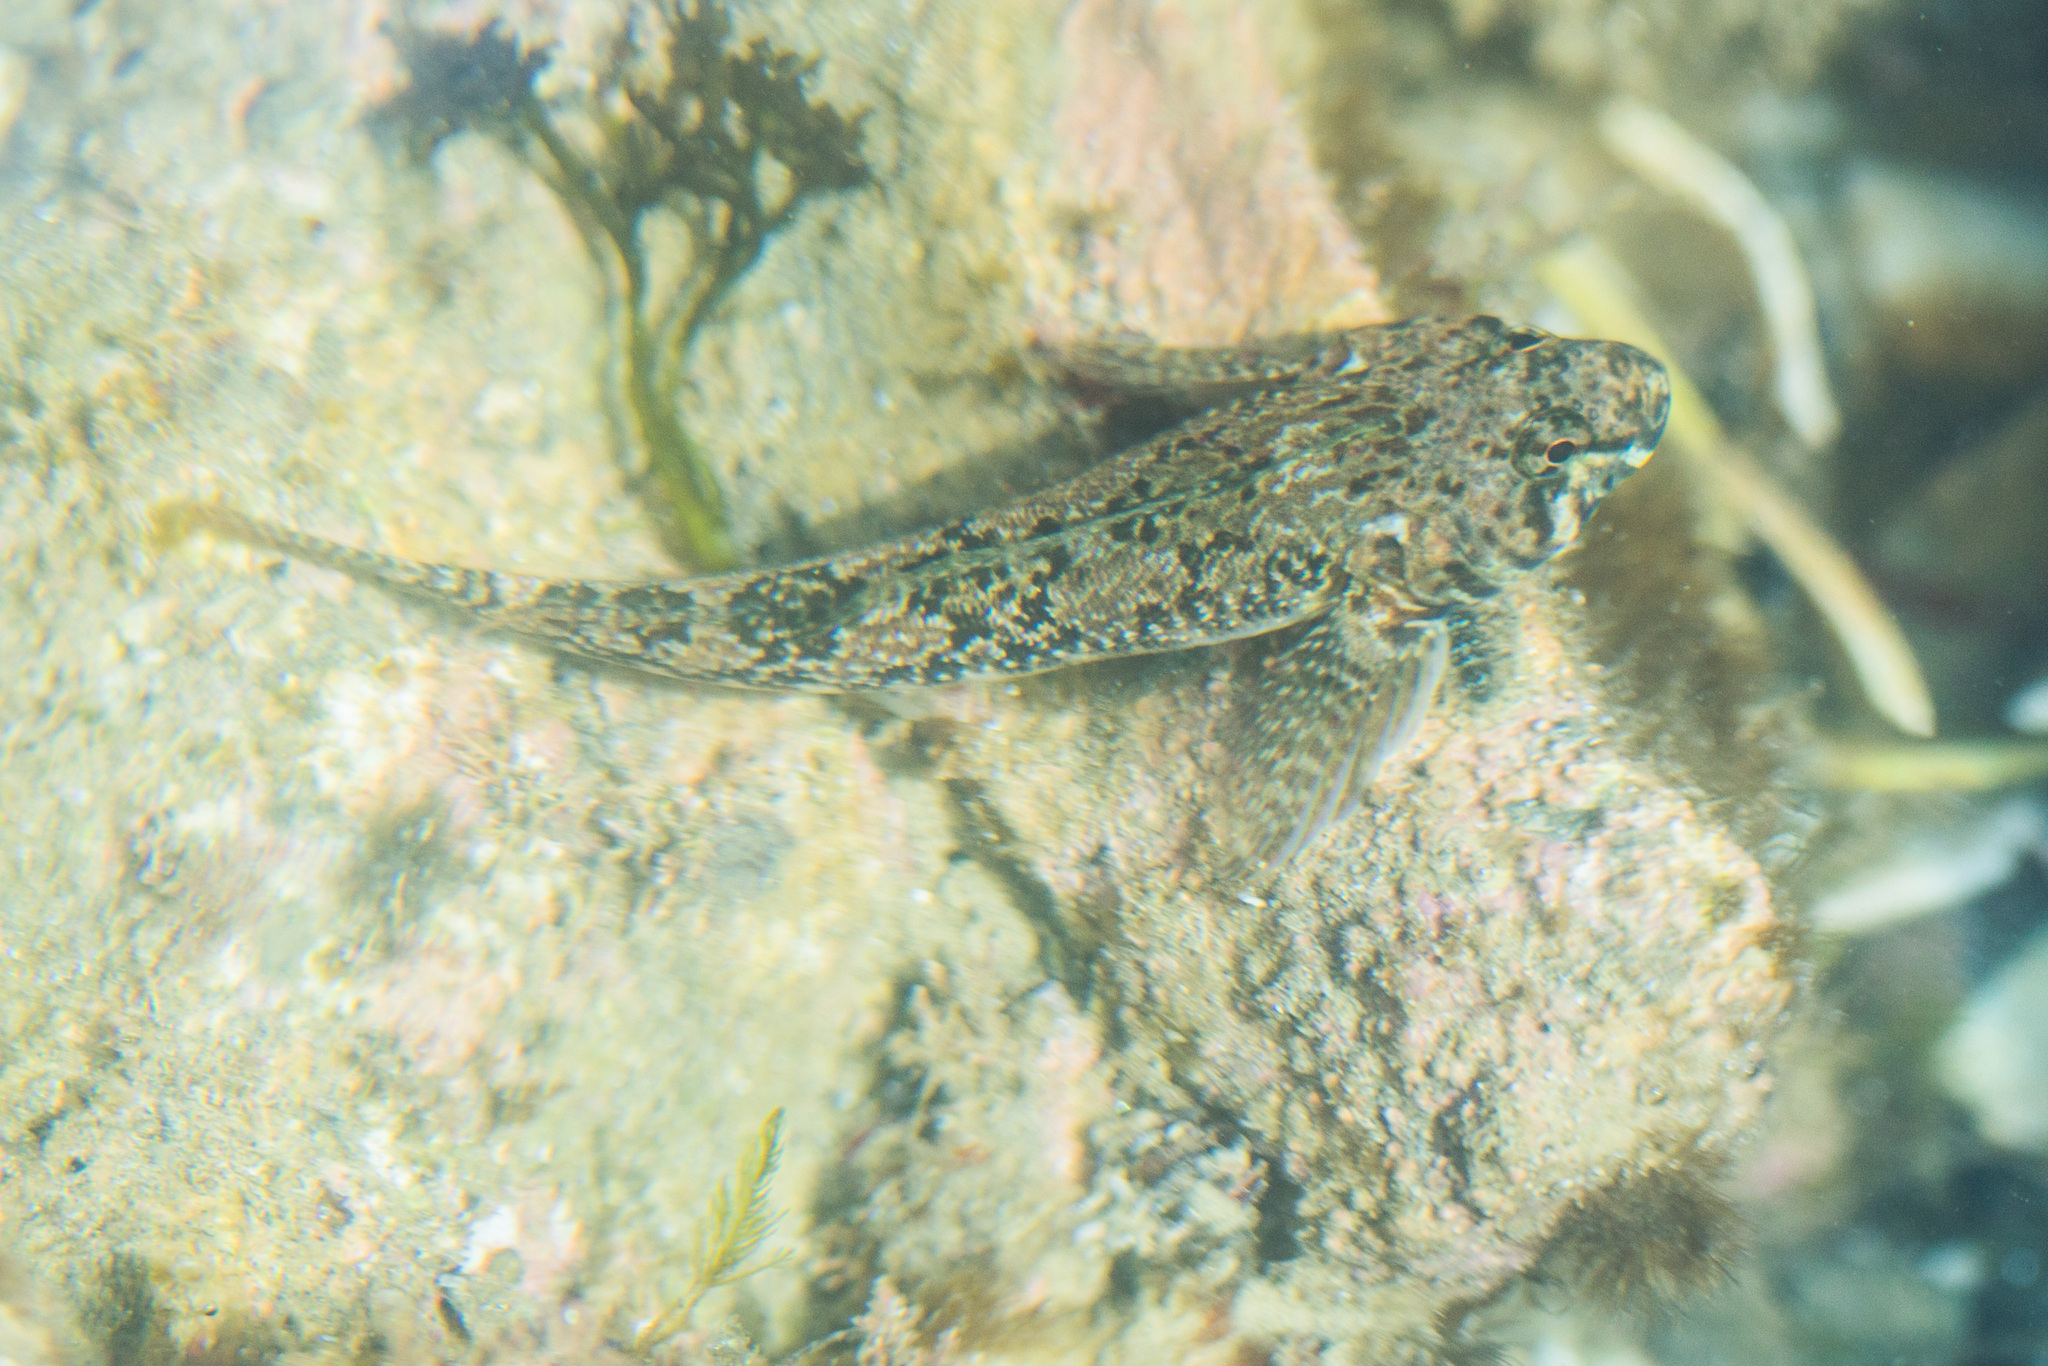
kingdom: Animalia
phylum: Chordata
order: Perciformes
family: Tripterygiidae
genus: Bellapiscis
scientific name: Bellapiscis medius
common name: Twister
